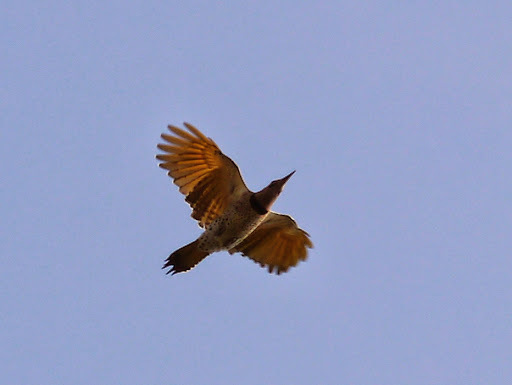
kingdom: Animalia
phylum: Chordata
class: Aves
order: Piciformes
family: Picidae
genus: Colaptes
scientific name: Colaptes auratus
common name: Northern flicker
